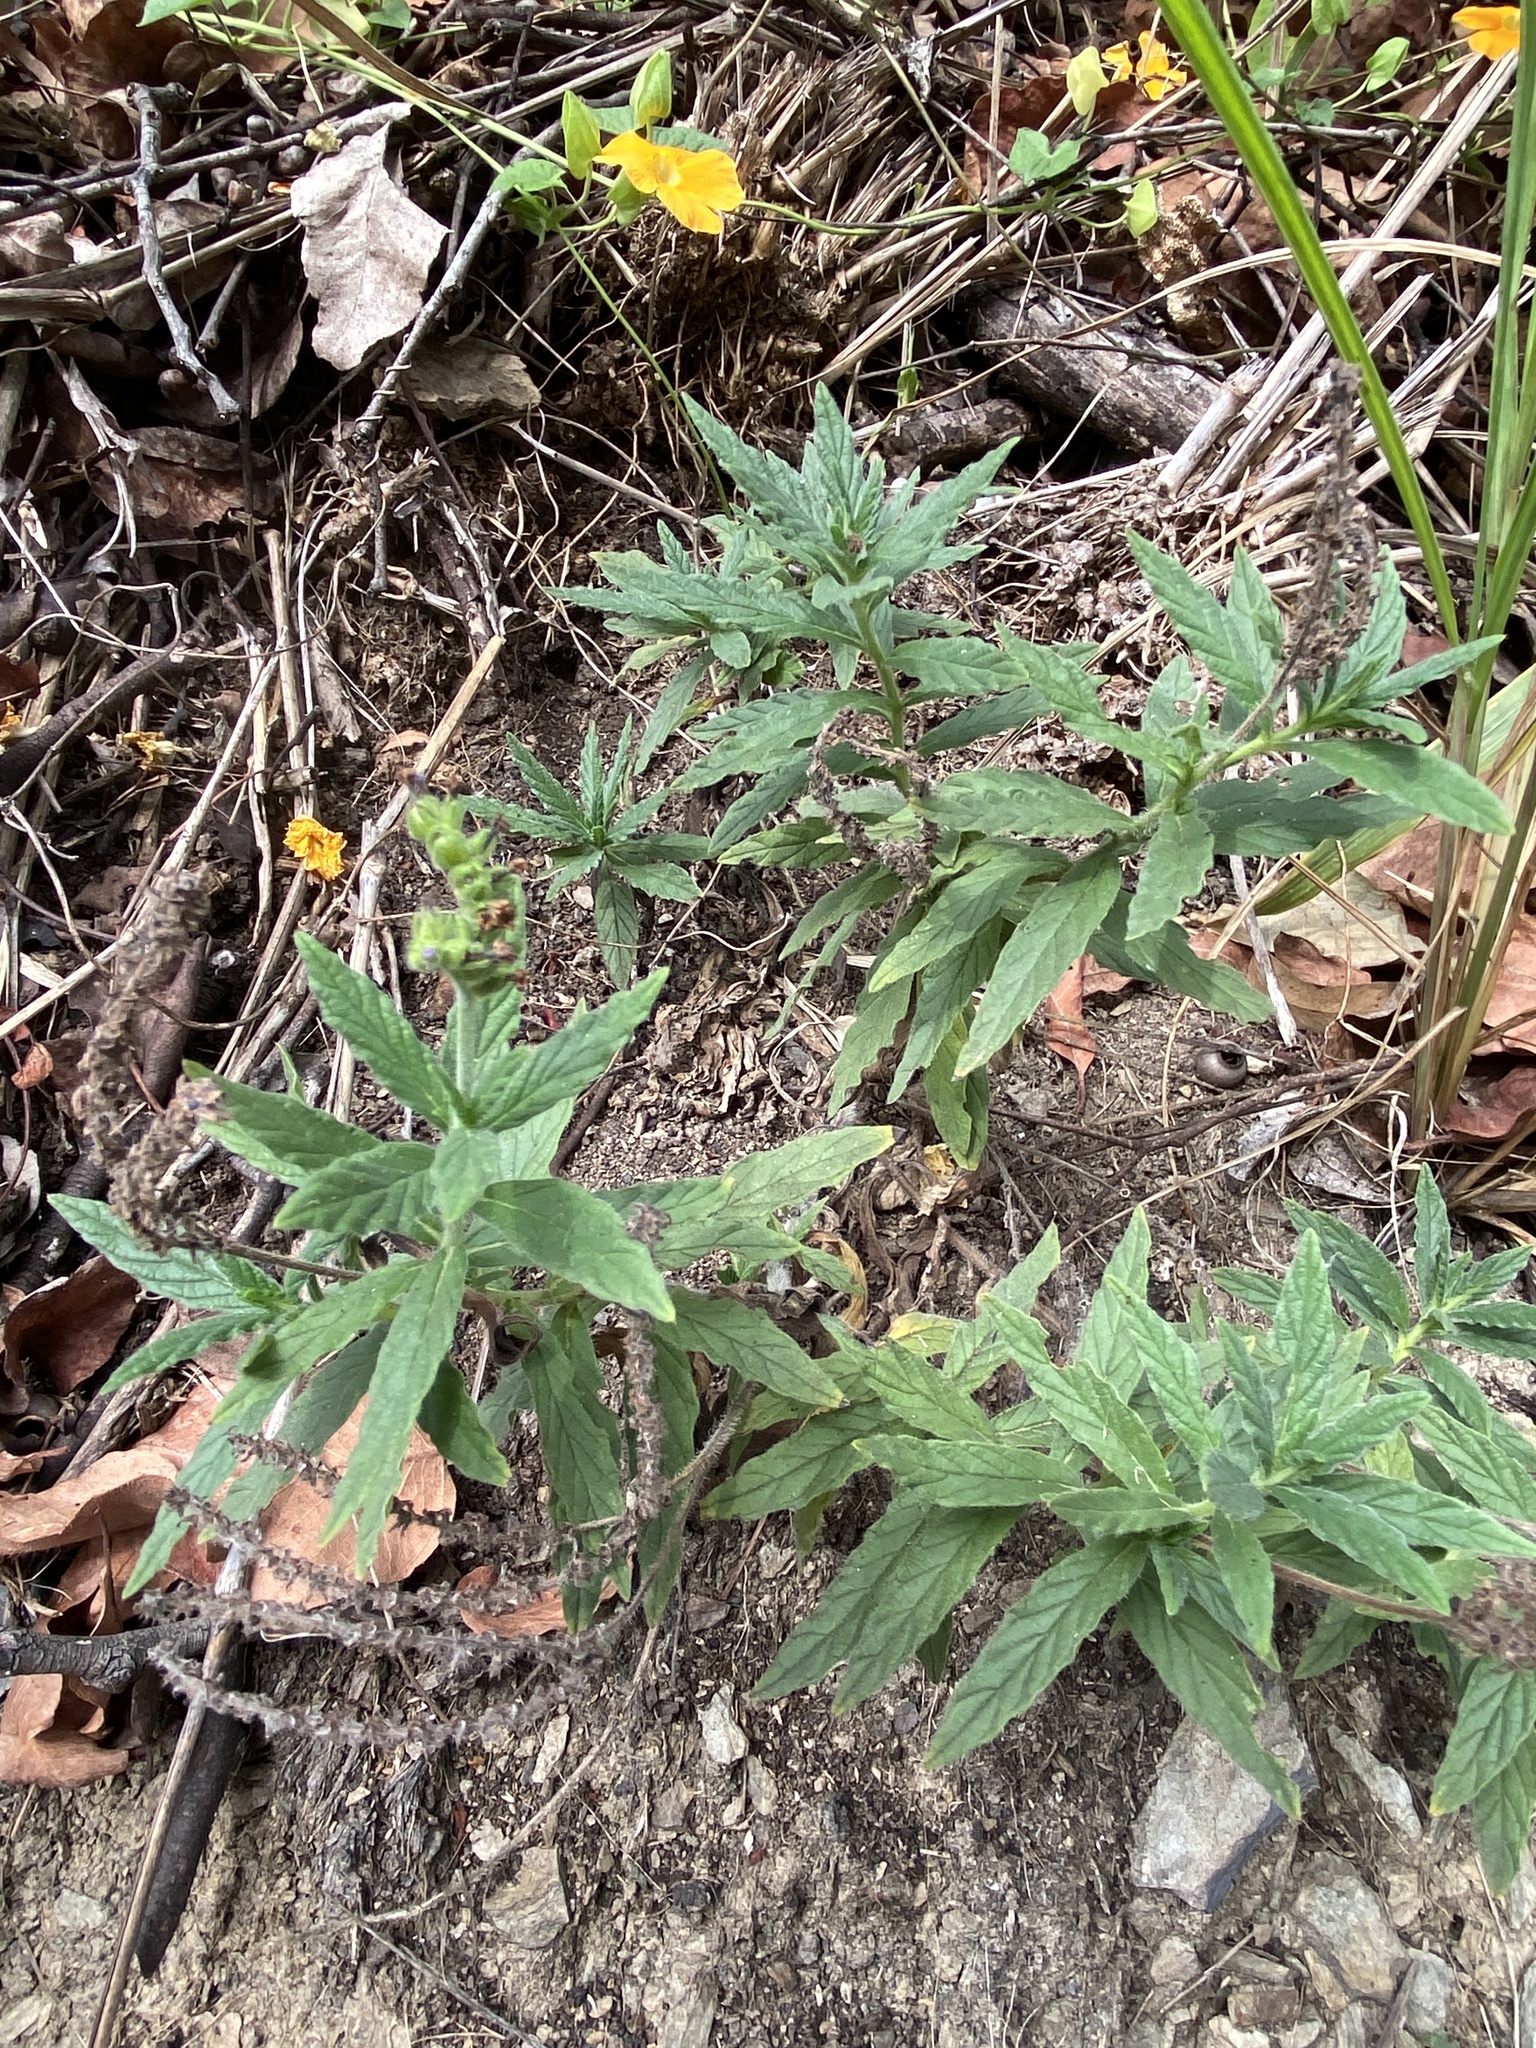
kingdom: Plantae
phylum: Tracheophyta
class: Magnoliopsida
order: Boraginales
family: Heliotropiaceae
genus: Heliotropium
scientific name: Heliotropium amplexicaule
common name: Clasping heliotrope
